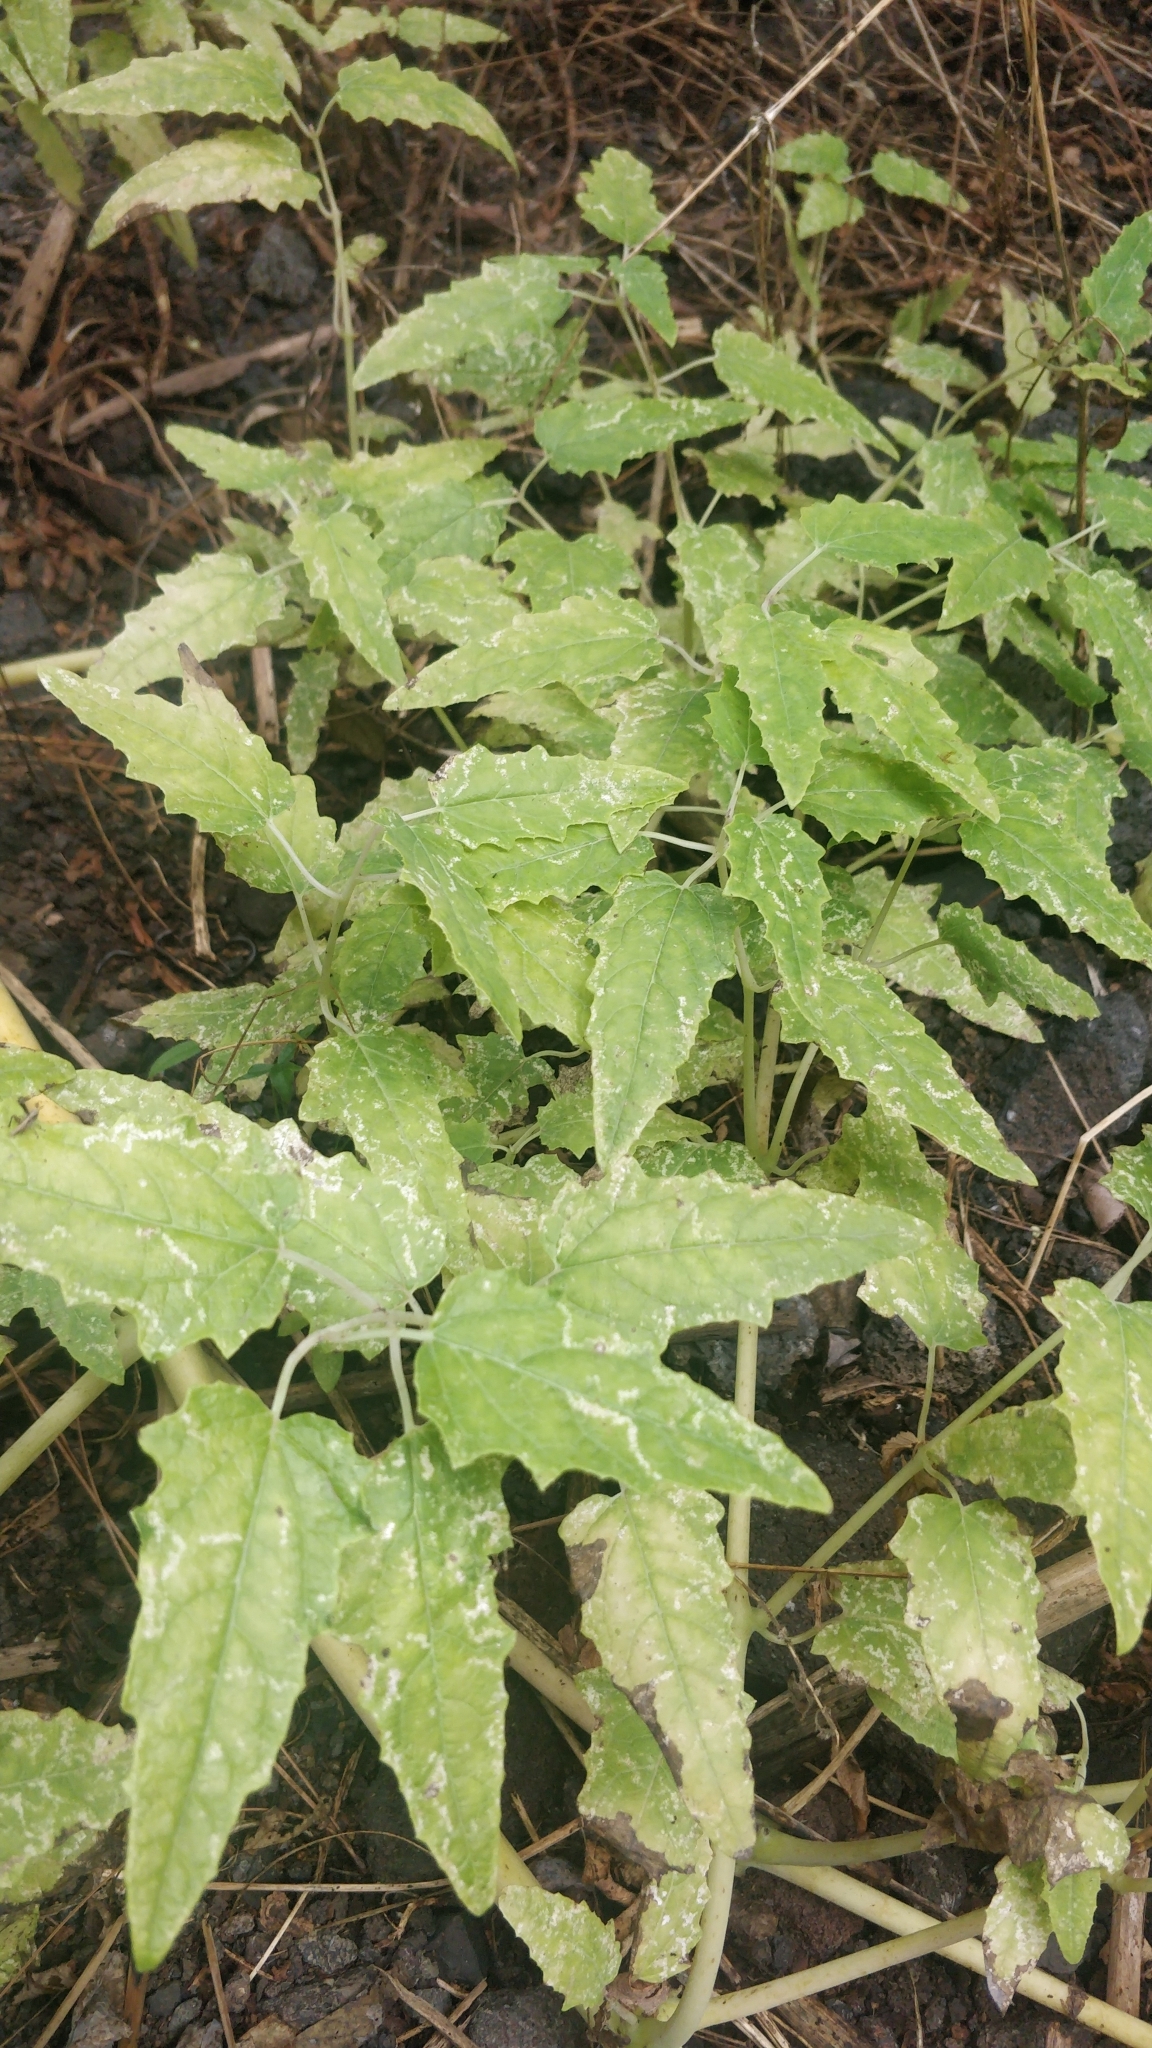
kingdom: Plantae
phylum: Tracheophyta
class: Magnoliopsida
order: Asterales
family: Campanulaceae
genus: Canarina
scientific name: Canarina canariensis
